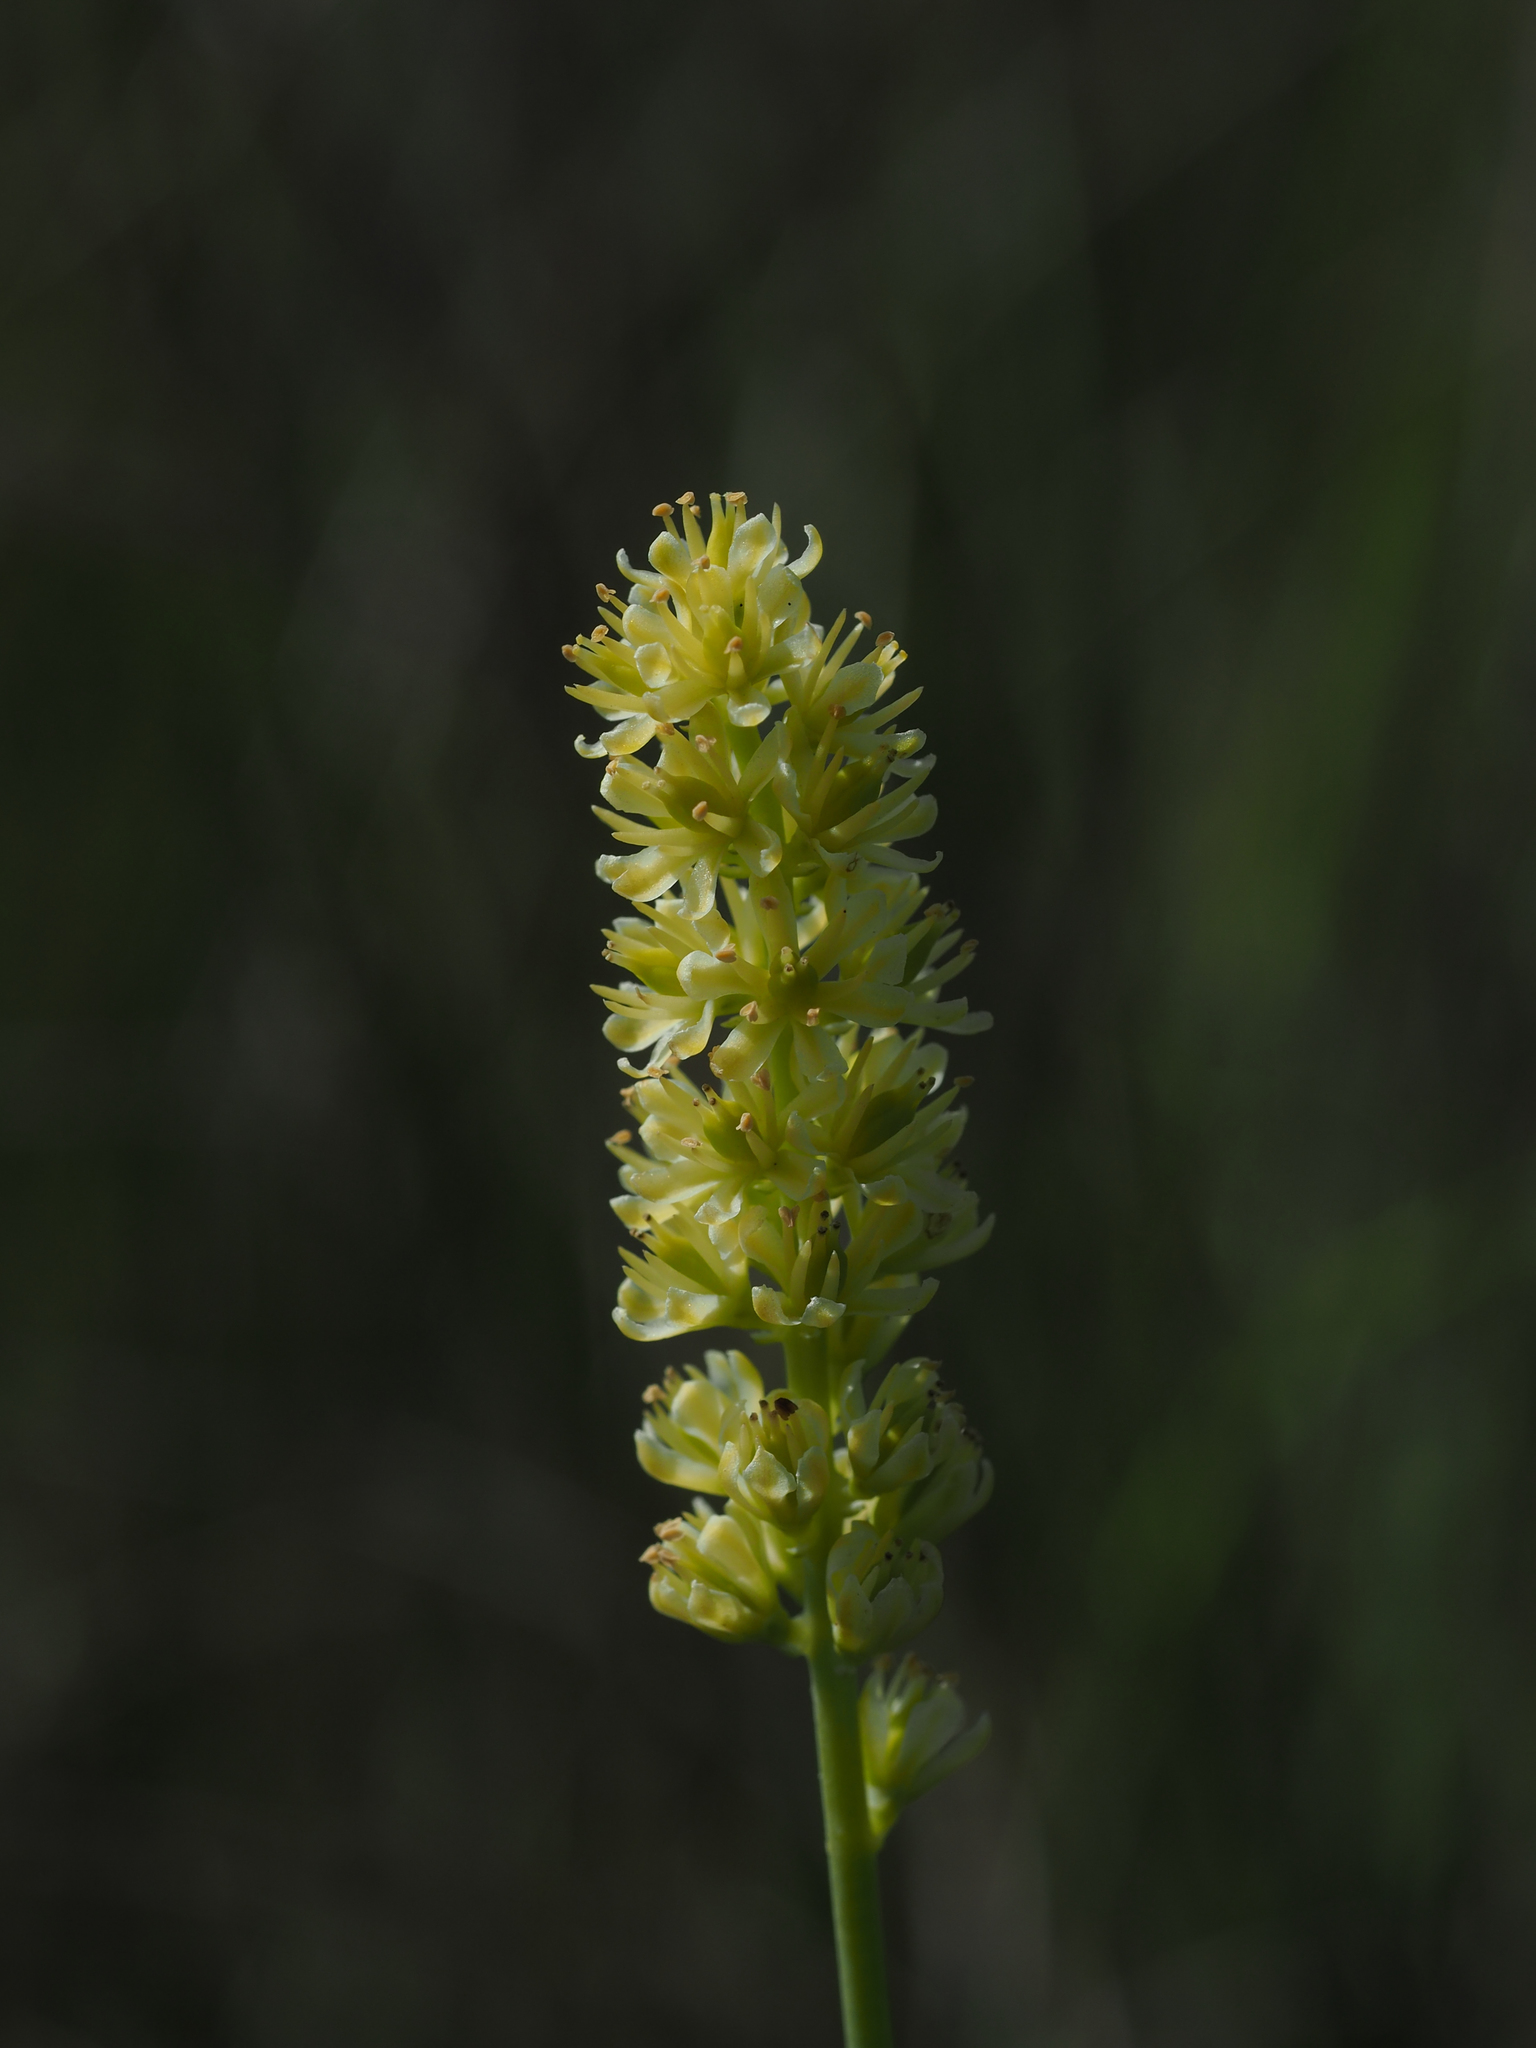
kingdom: Plantae
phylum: Tracheophyta
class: Liliopsida
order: Alismatales
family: Tofieldiaceae
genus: Tofieldia
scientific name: Tofieldia calyculata
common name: German-asphodel
